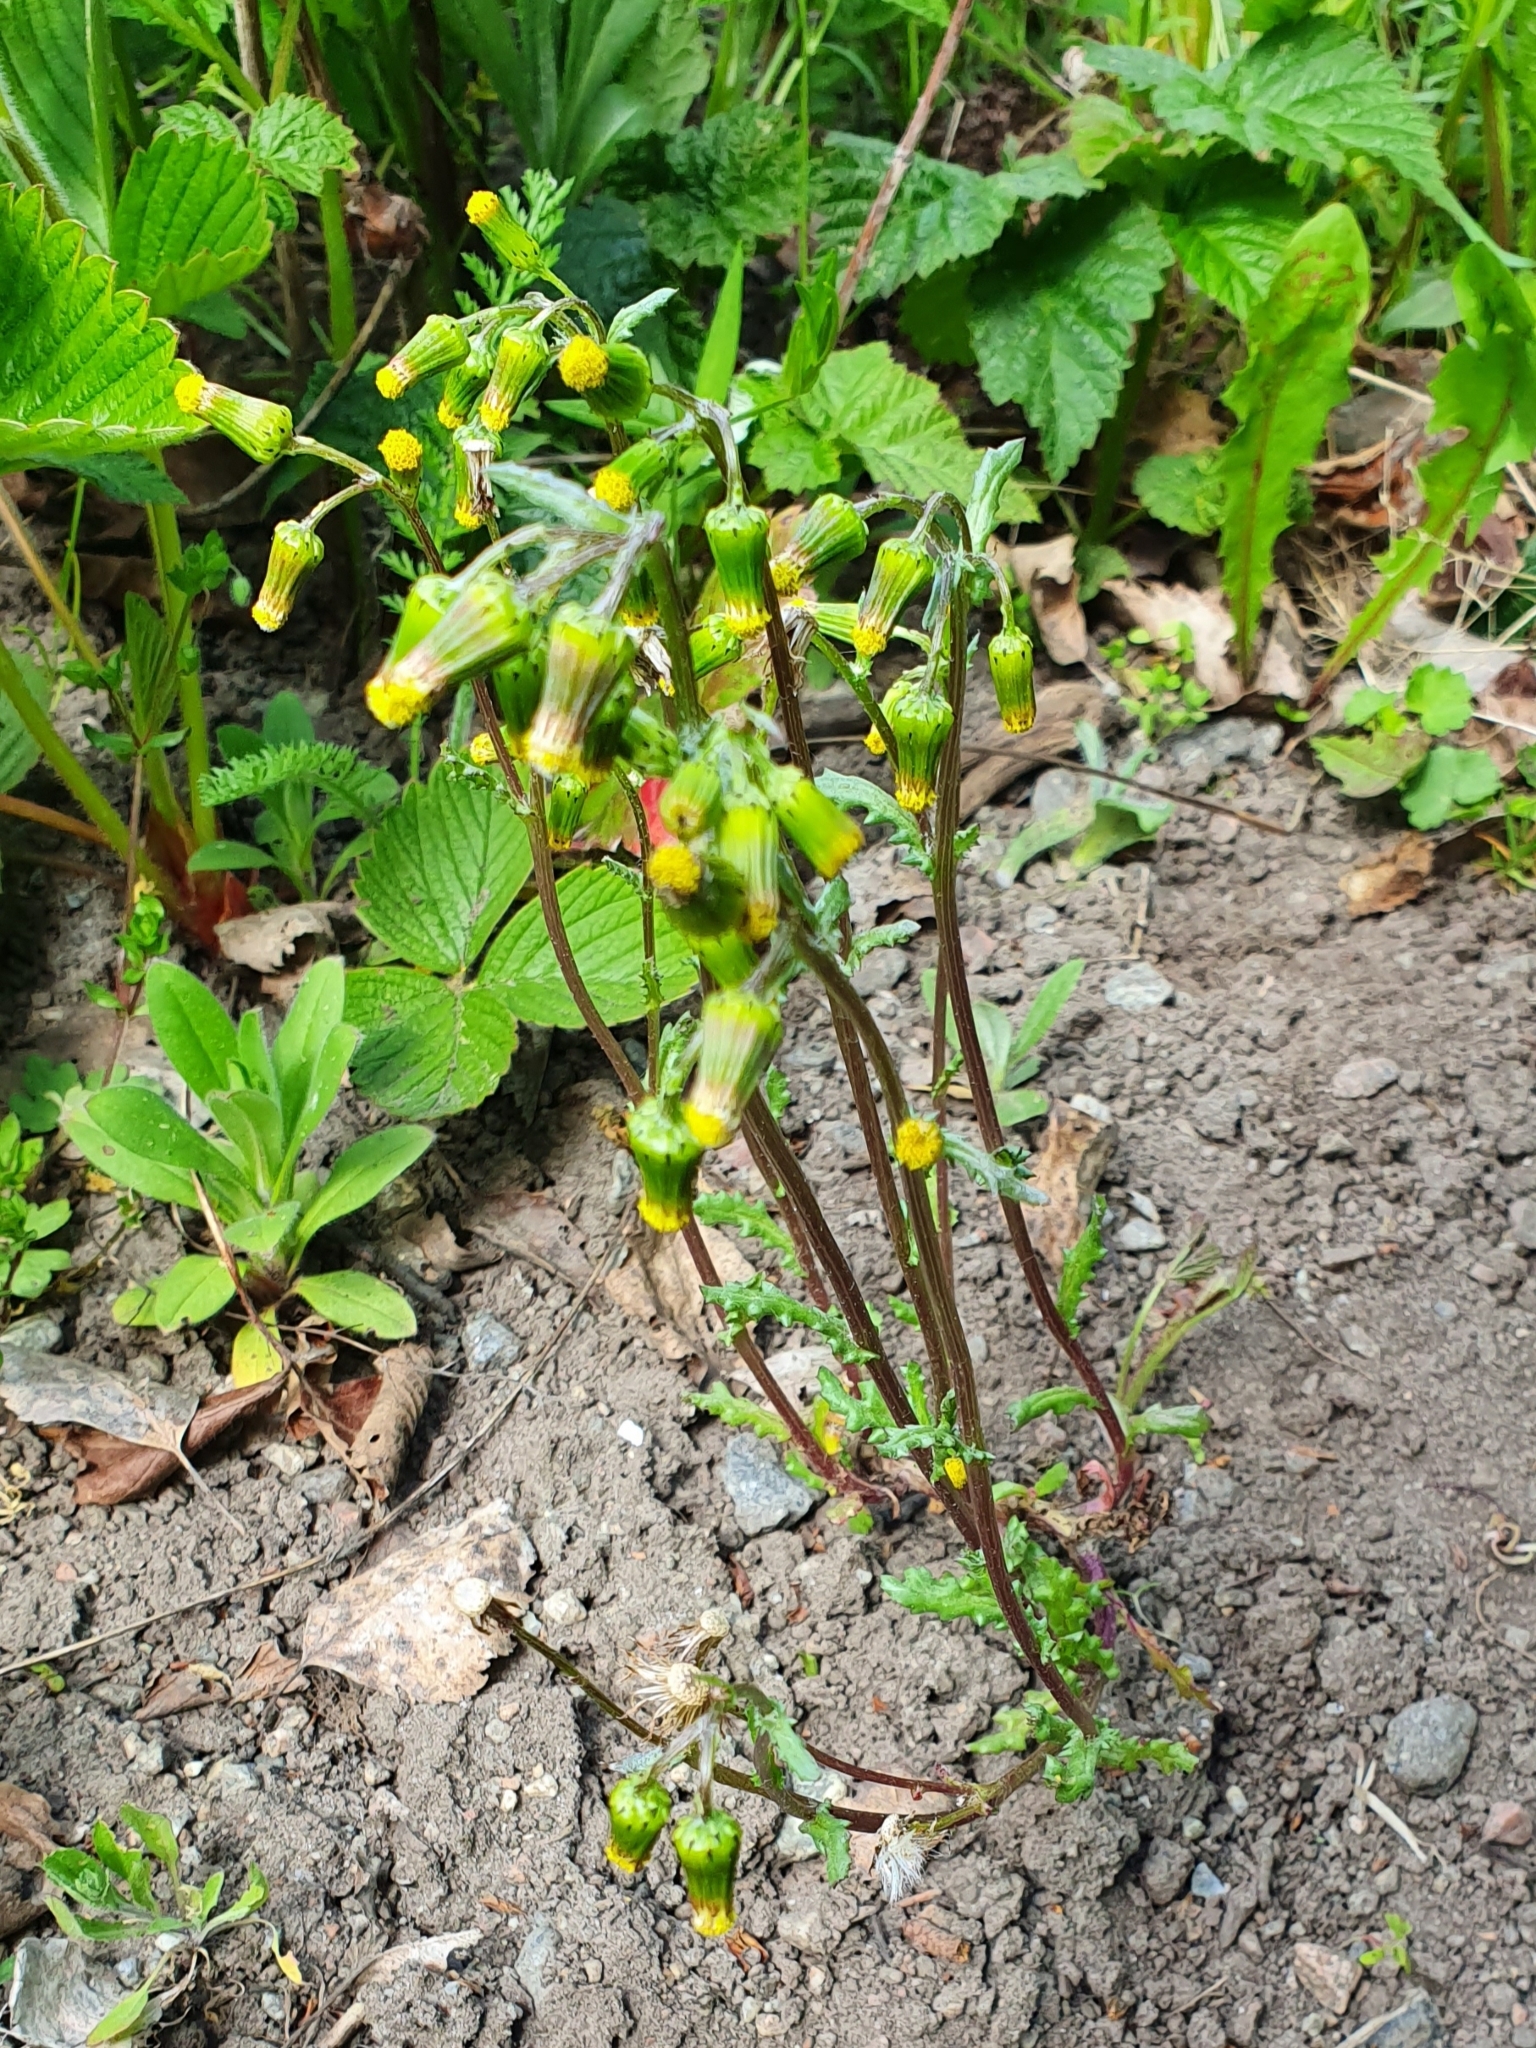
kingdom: Plantae
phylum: Tracheophyta
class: Magnoliopsida
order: Asterales
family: Asteraceae
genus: Senecio
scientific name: Senecio vulgaris
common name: Old-man-in-the-spring
